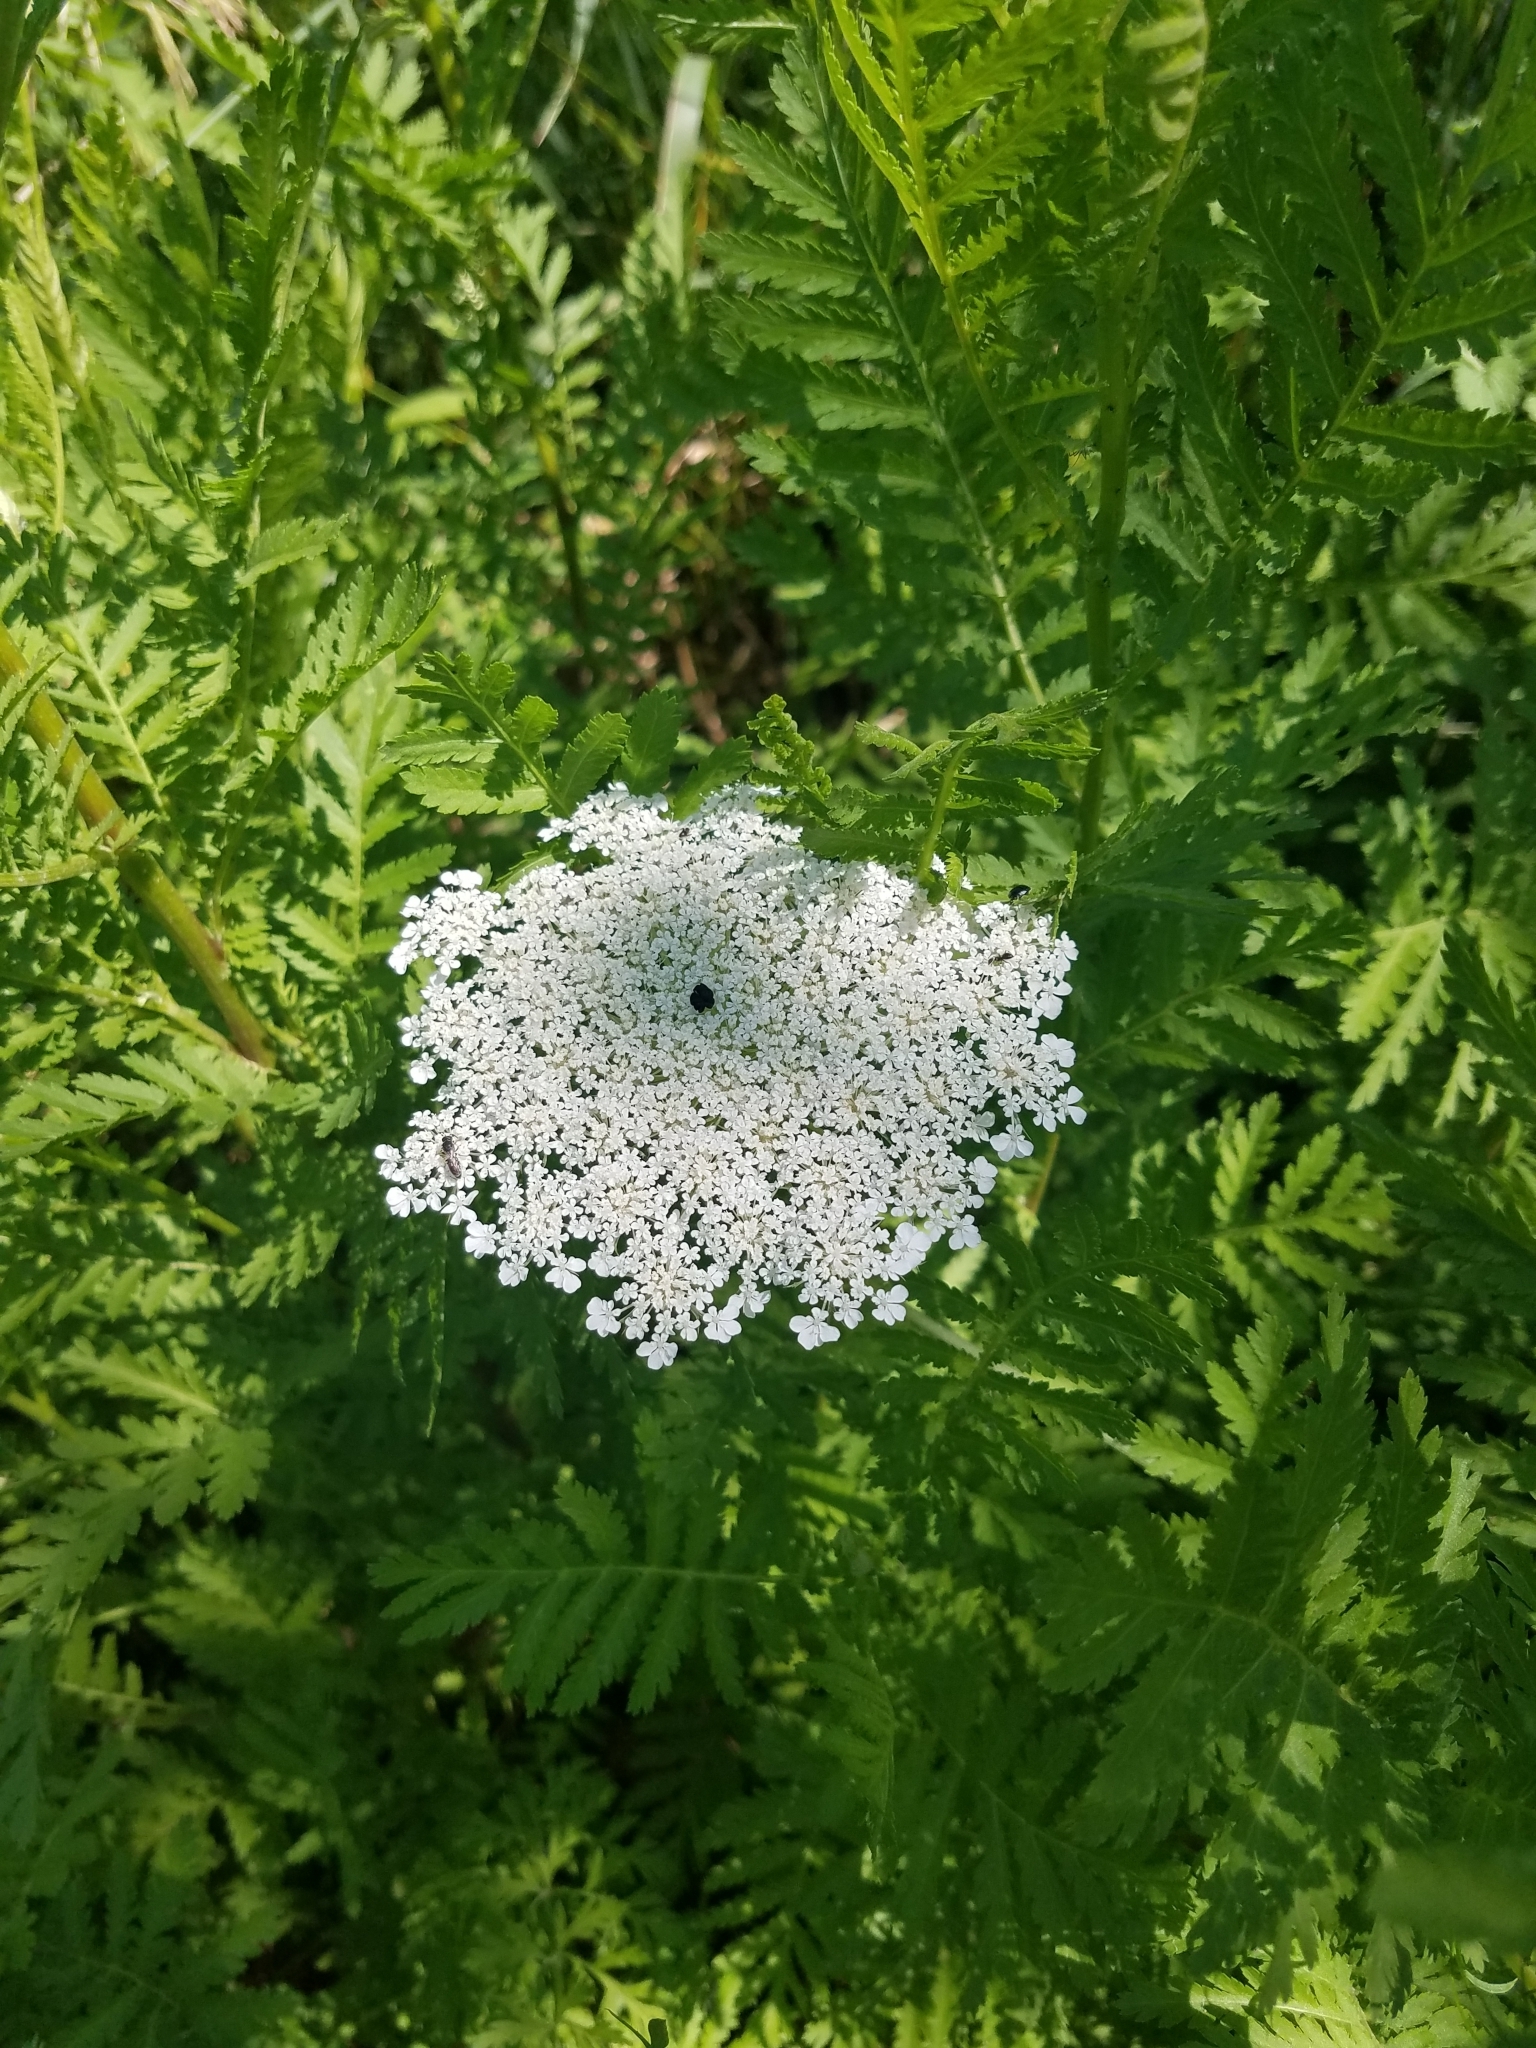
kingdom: Plantae
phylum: Tracheophyta
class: Magnoliopsida
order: Apiales
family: Apiaceae
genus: Daucus
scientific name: Daucus carota
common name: Wild carrot
